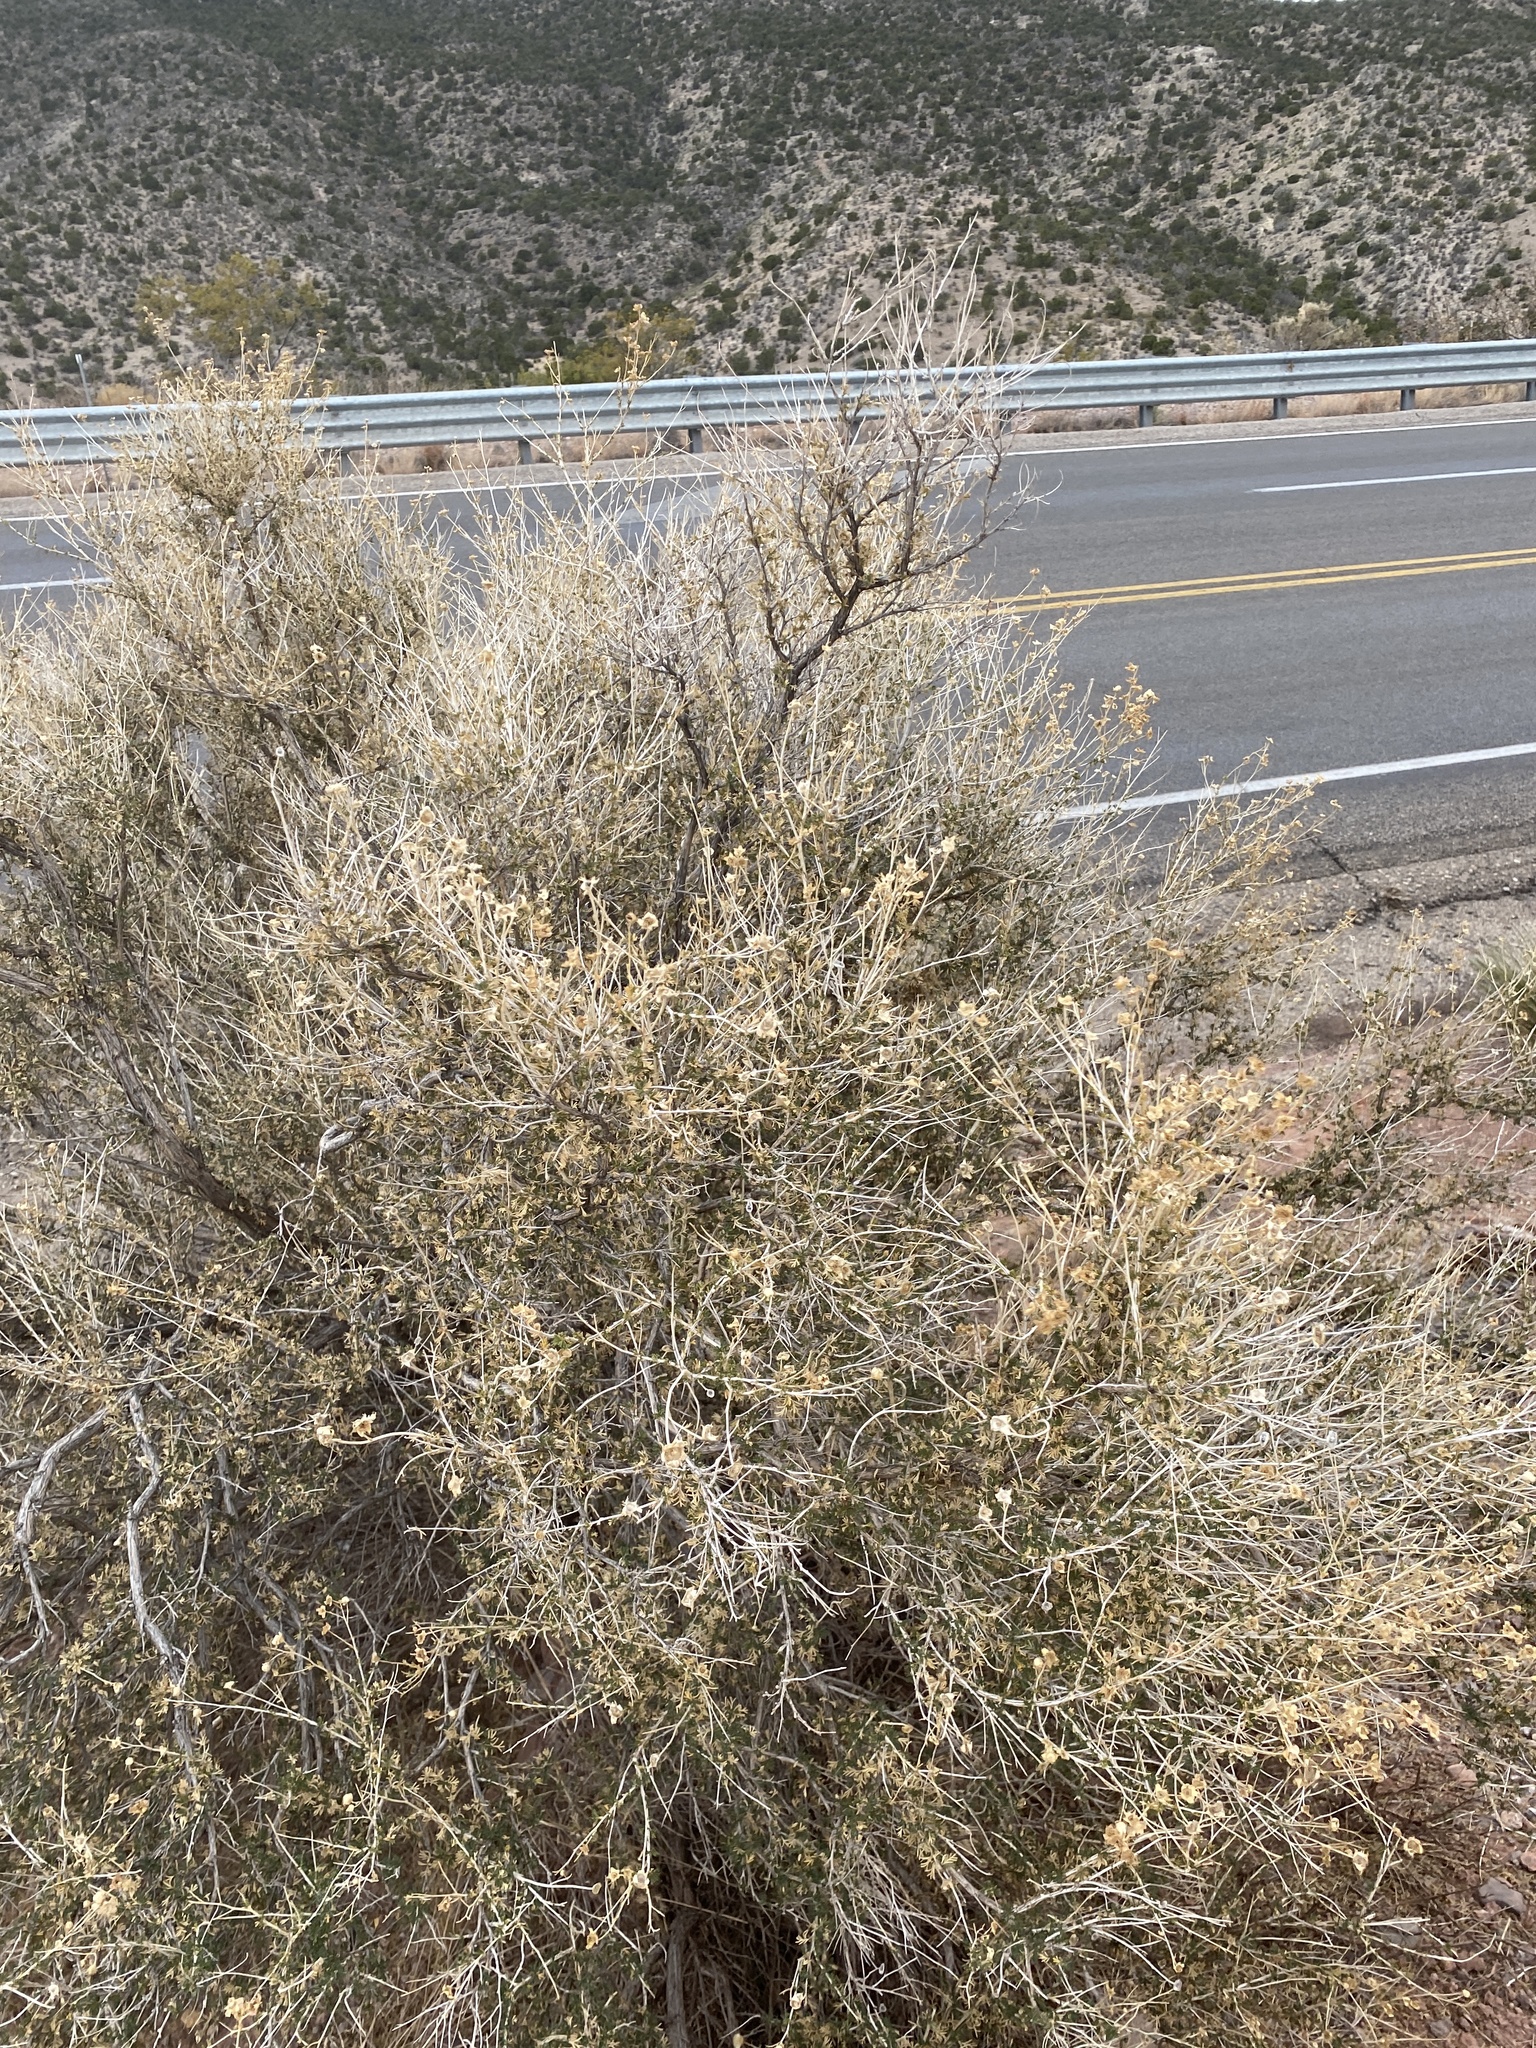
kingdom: Plantae
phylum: Tracheophyta
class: Magnoliopsida
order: Rosales
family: Rosaceae
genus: Fallugia
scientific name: Fallugia paradoxa
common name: Apache-plume
